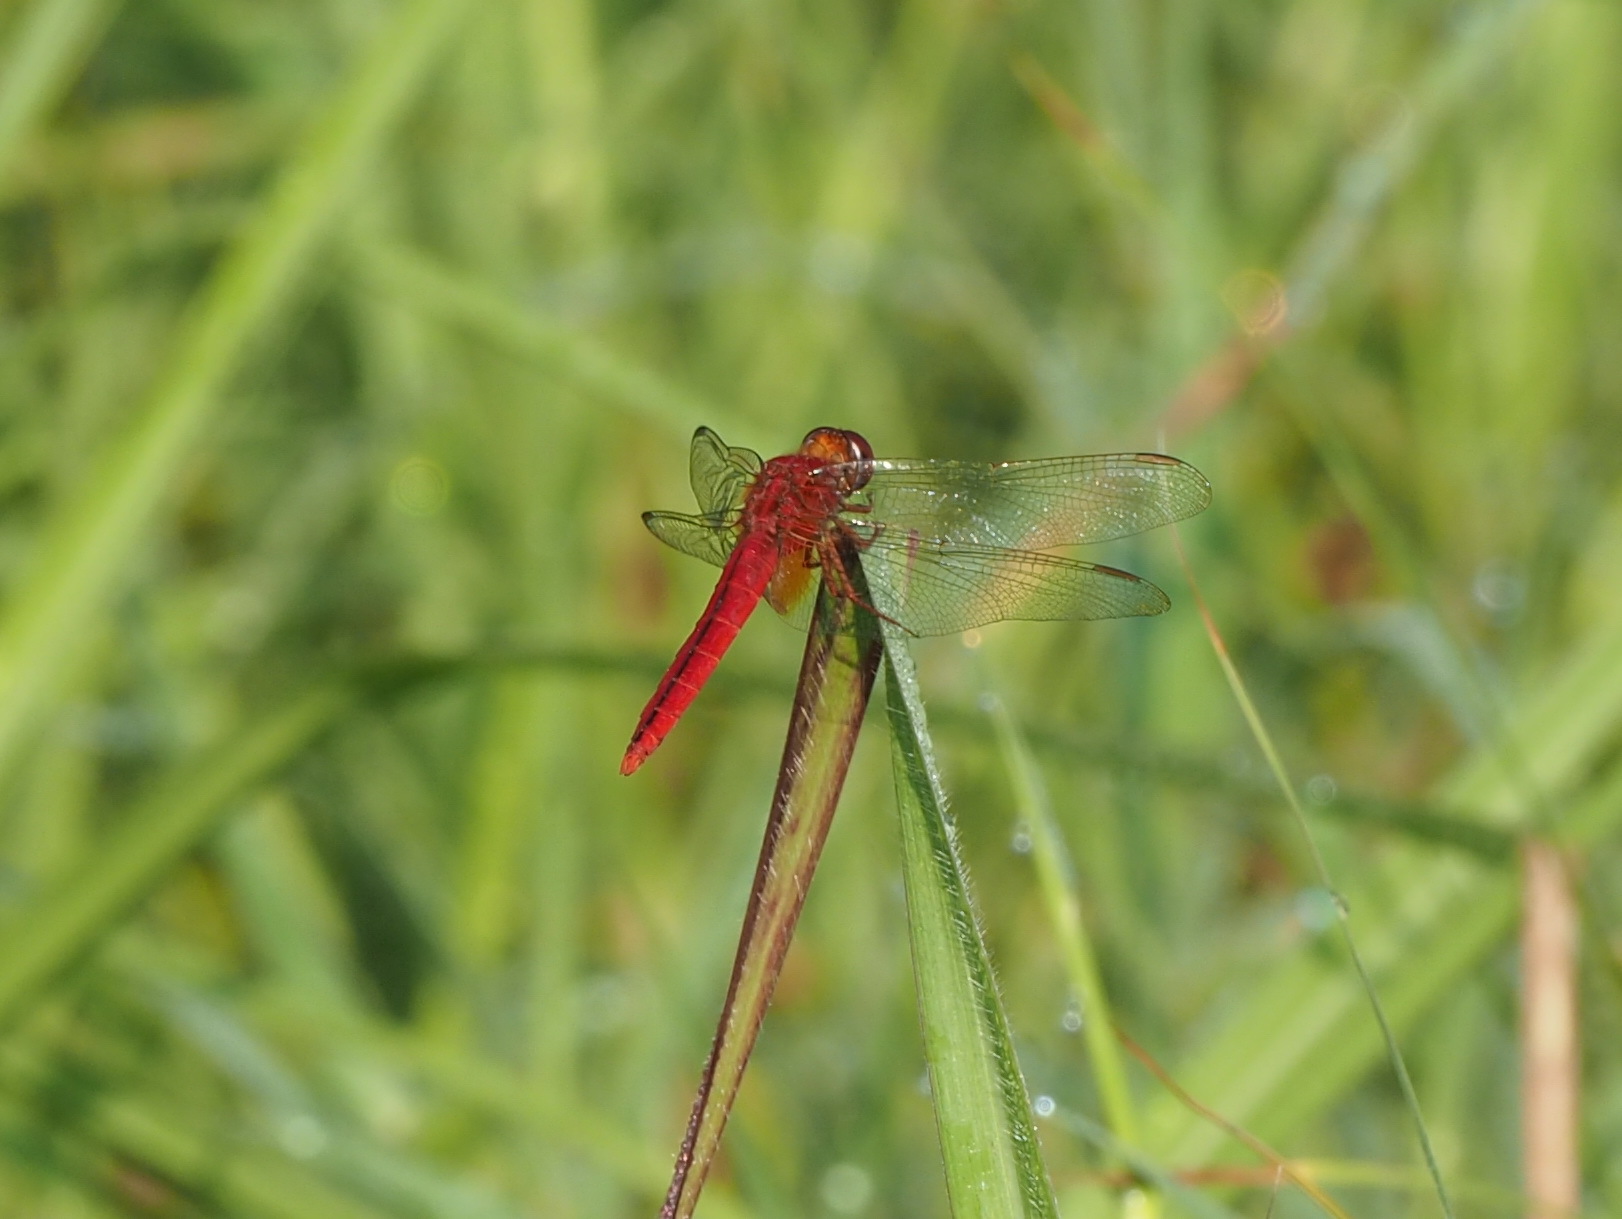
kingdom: Animalia
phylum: Arthropoda
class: Insecta
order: Odonata
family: Libellulidae
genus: Crocothemis
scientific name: Crocothemis servilia
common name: Scarlet skimmer
